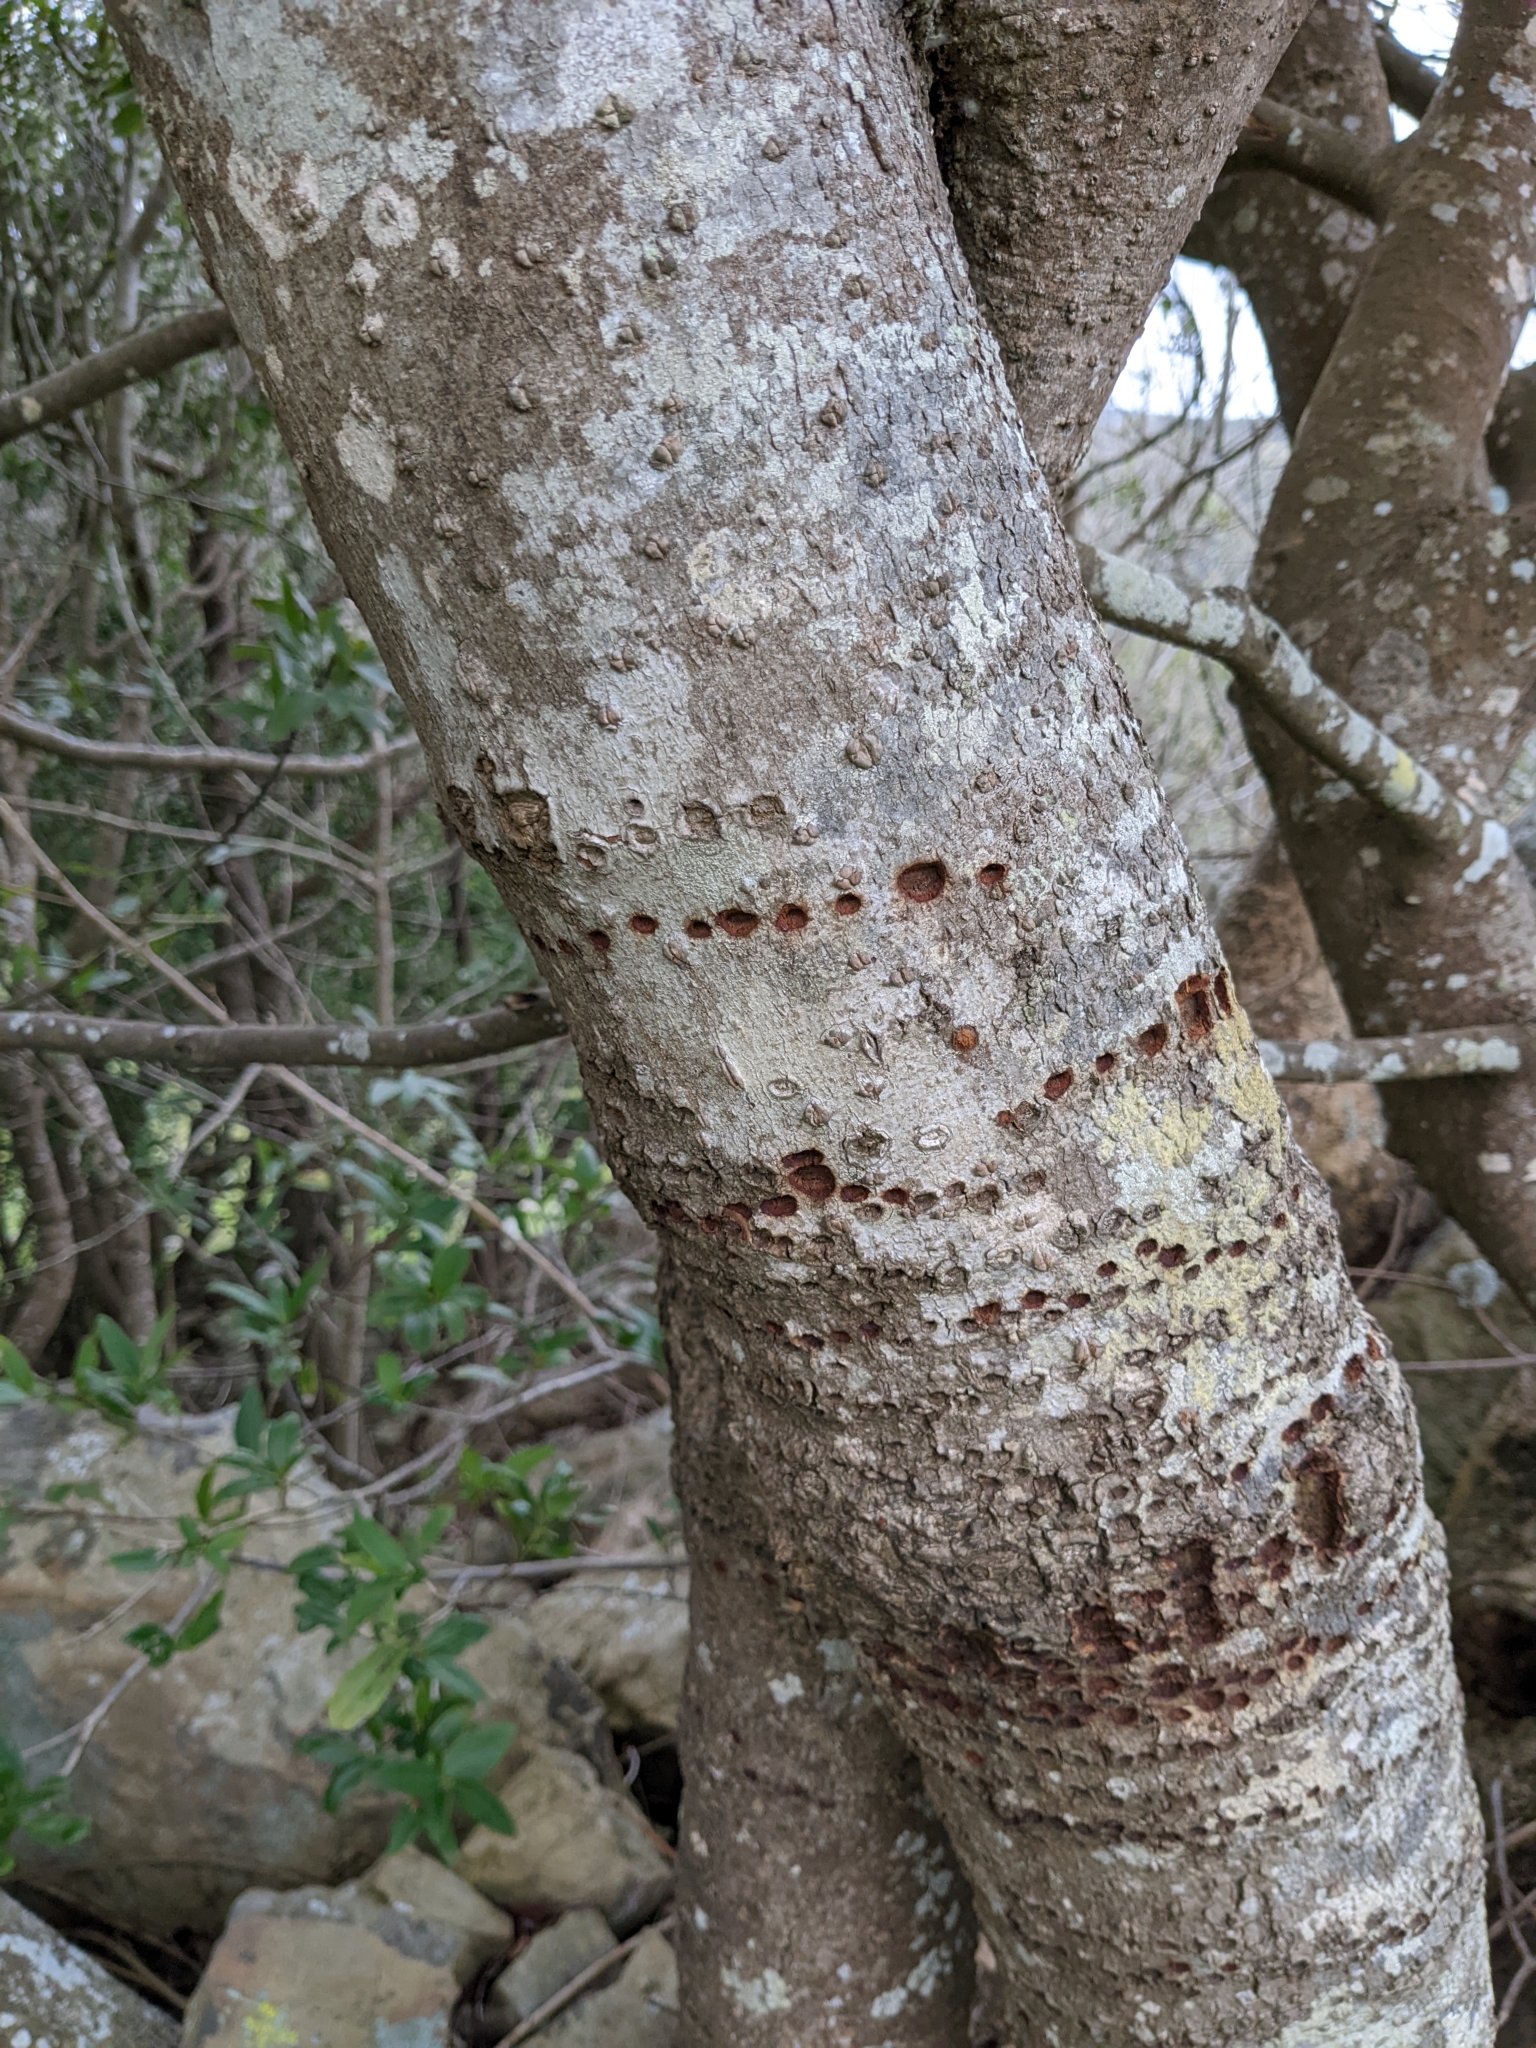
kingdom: Animalia
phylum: Chordata
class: Aves
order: Piciformes
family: Picidae
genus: Sphyrapicus
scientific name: Sphyrapicus
